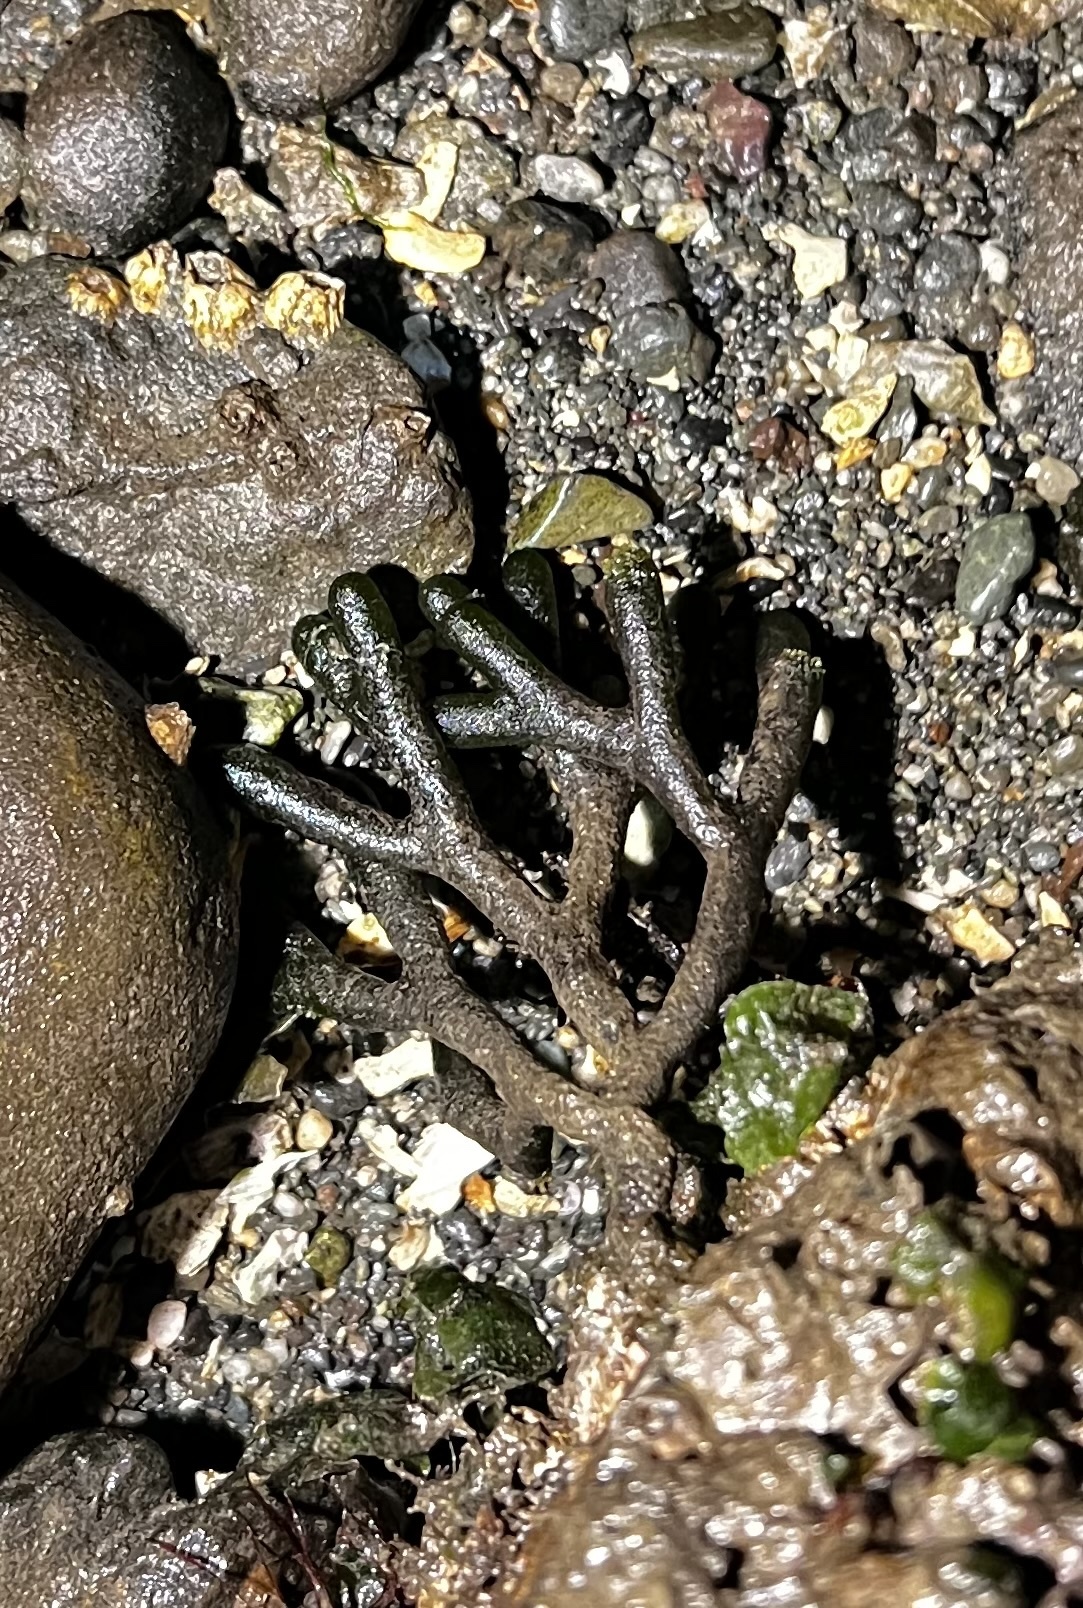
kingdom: Plantae
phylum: Chlorophyta
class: Ulvophyceae
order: Bryopsidales
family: Codiaceae
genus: Codium
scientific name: Codium fragile
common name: Dead man's fingers
